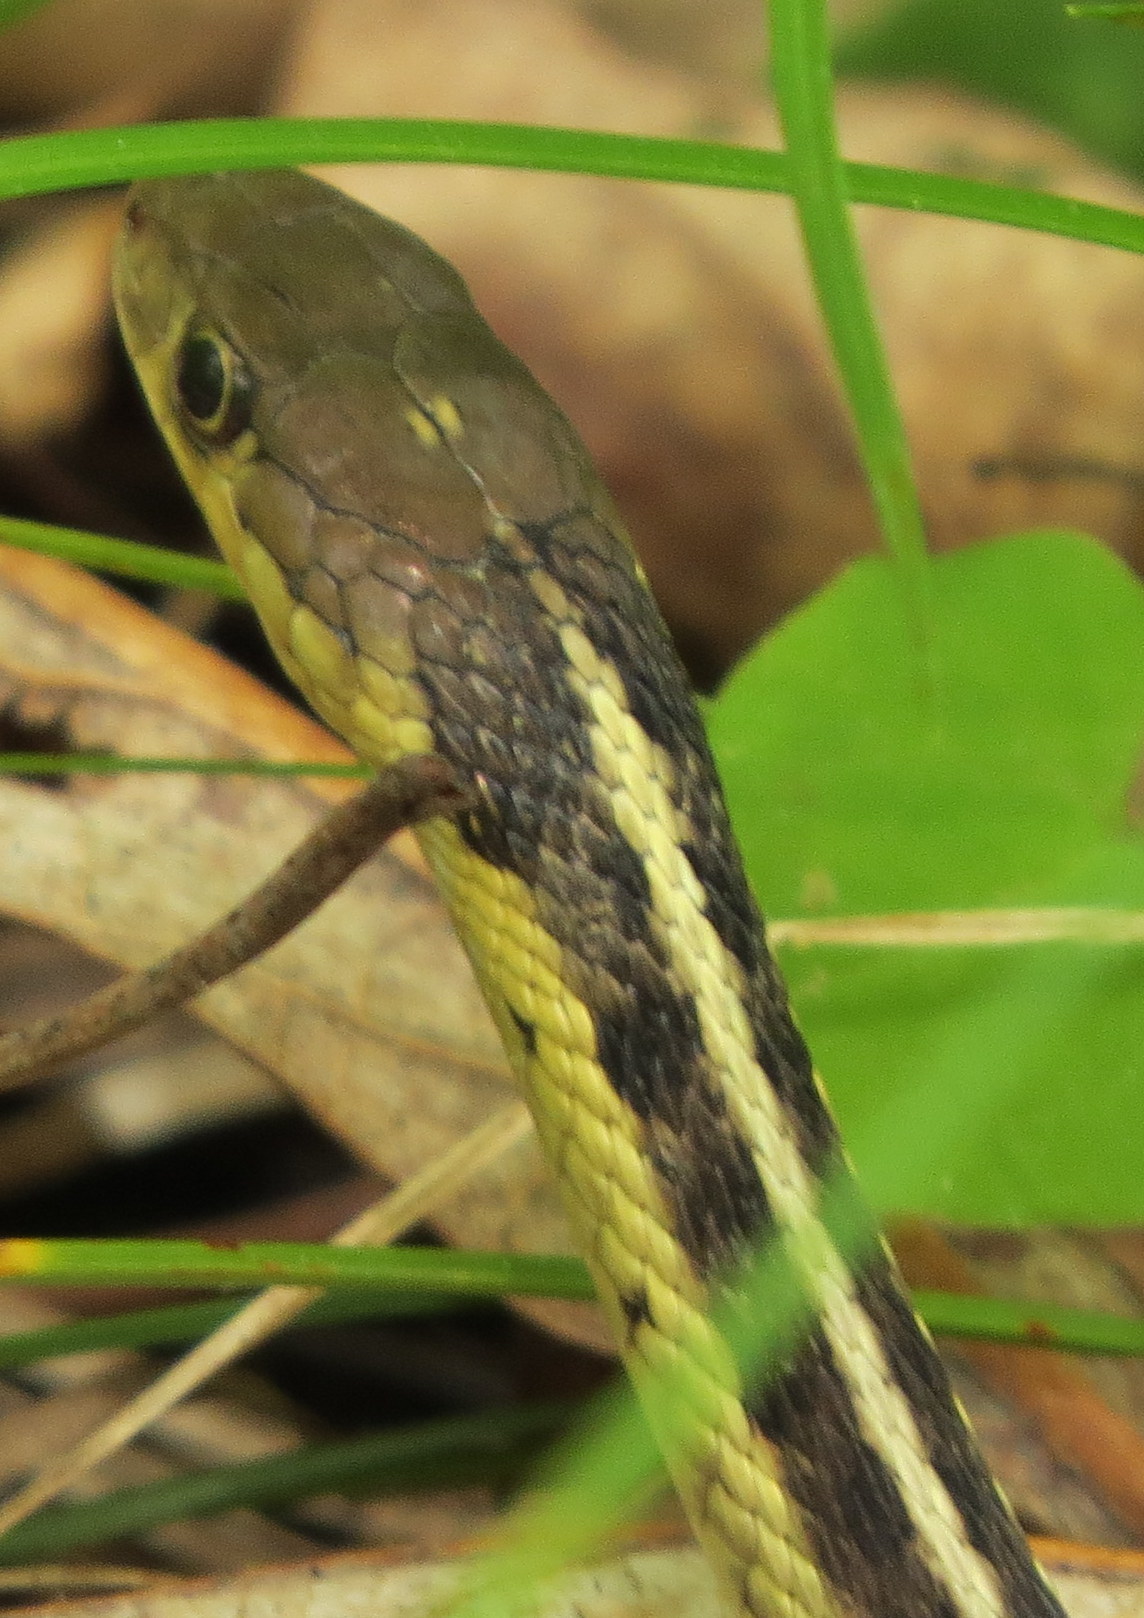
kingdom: Animalia
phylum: Chordata
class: Squamata
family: Colubridae
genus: Thamnophis
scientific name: Thamnophis sirtalis
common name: Common garter snake
